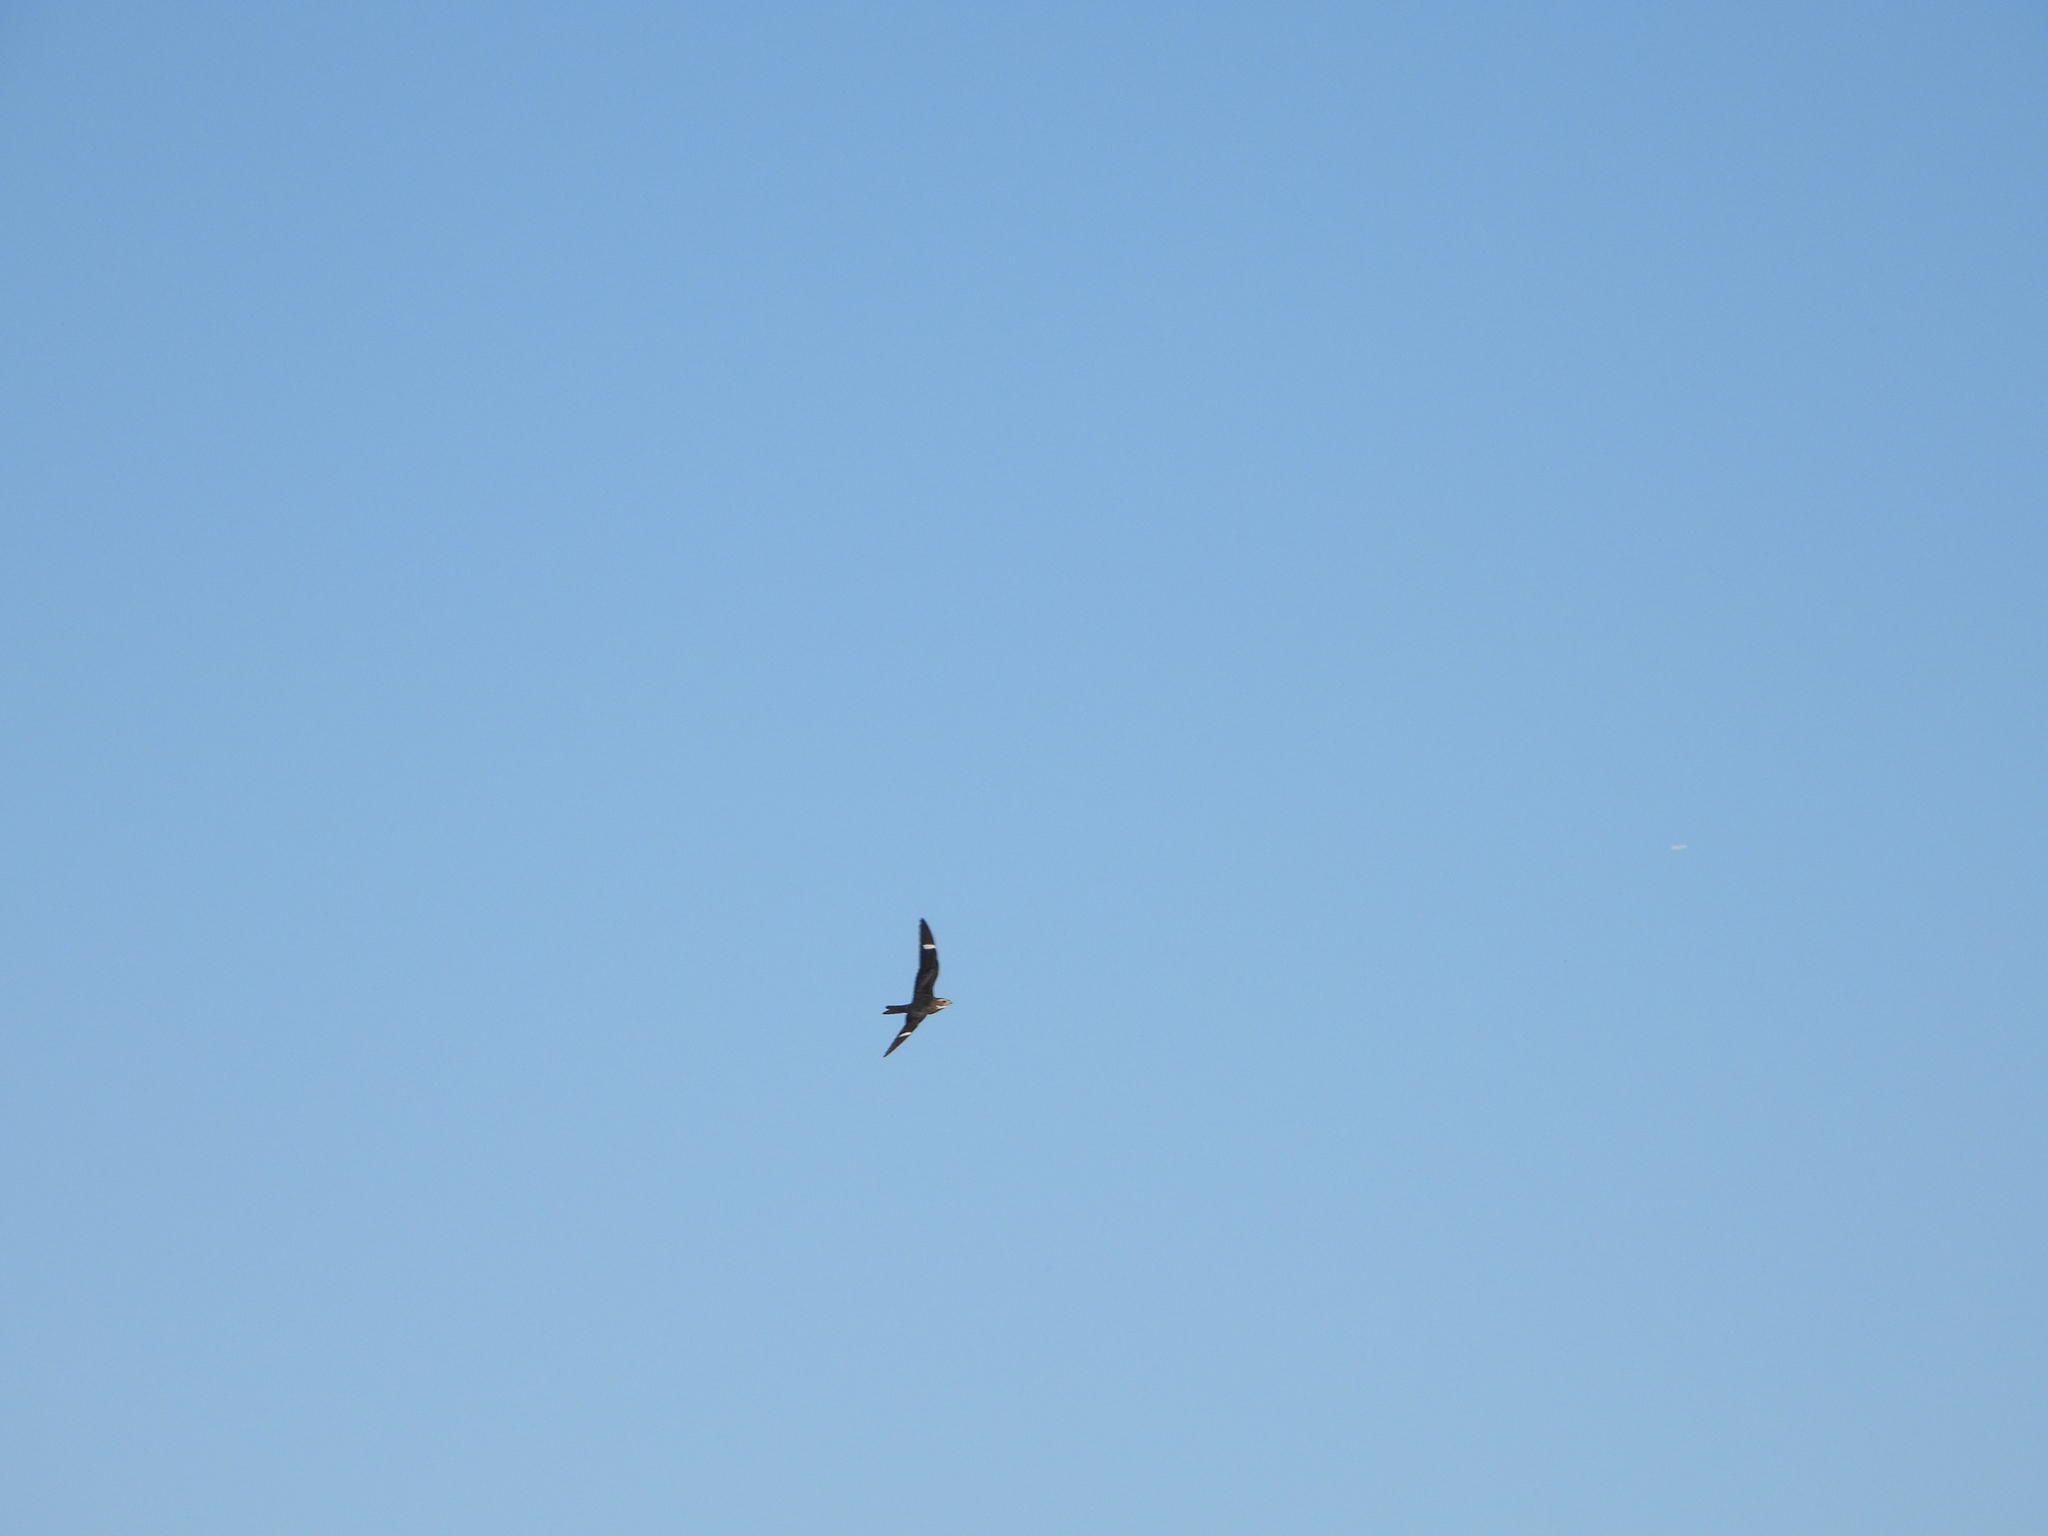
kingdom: Animalia
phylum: Chordata
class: Aves
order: Caprimulgiformes
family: Caprimulgidae
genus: Chordeiles
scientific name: Chordeiles minor
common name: Common nighthawk
